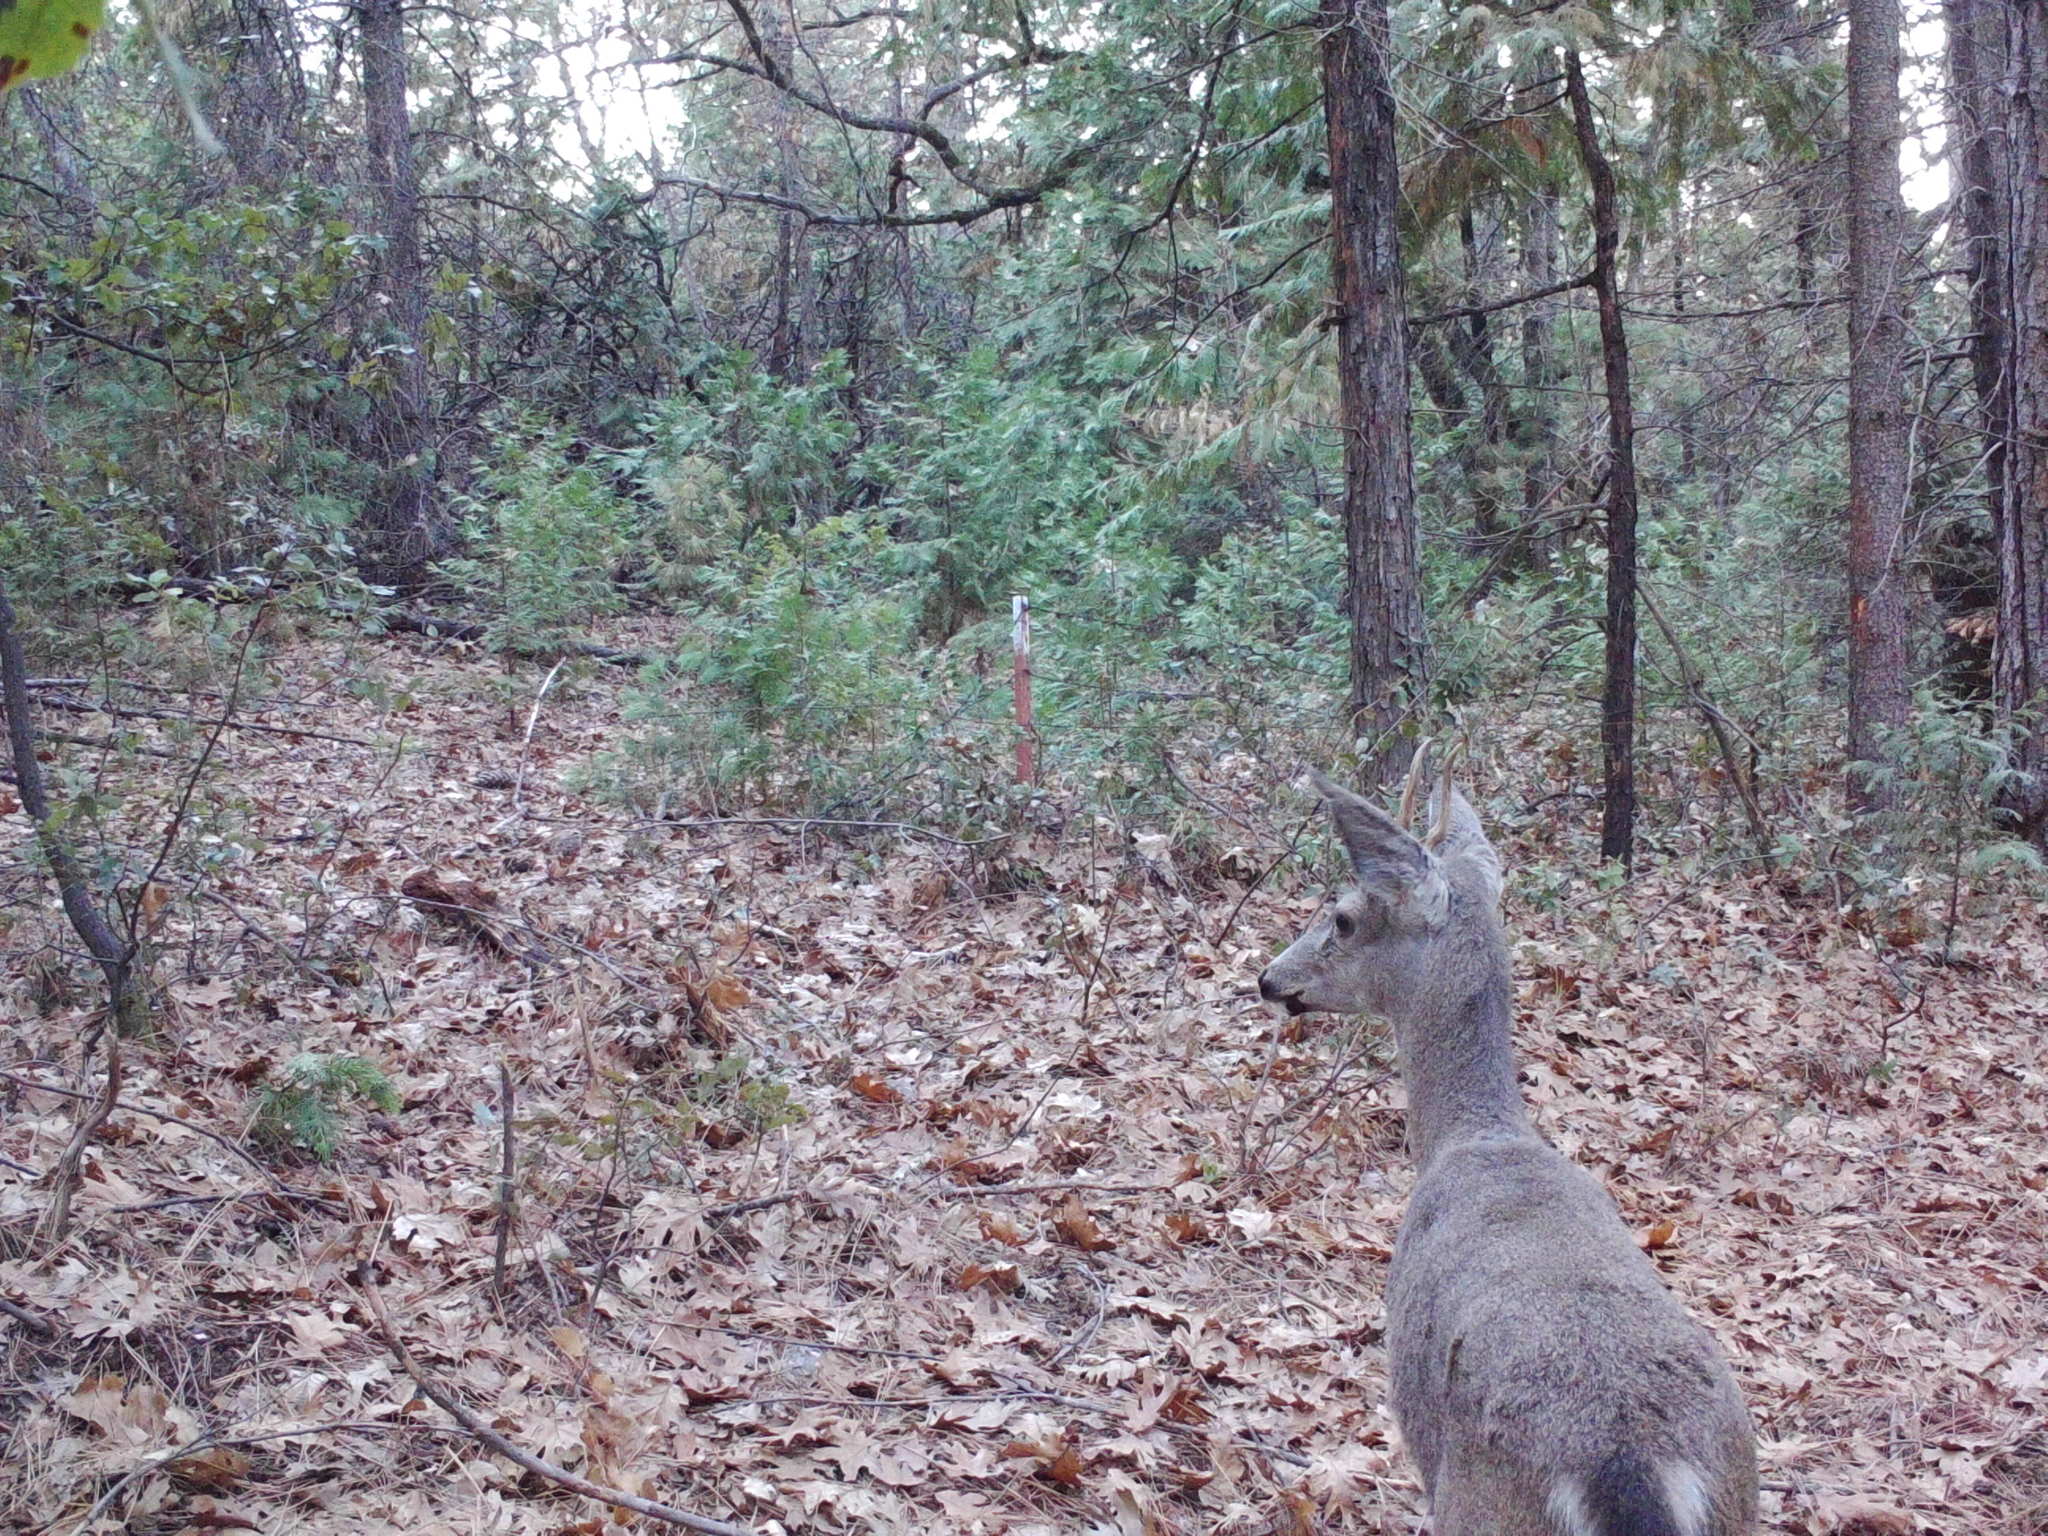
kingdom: Animalia
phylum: Chordata
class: Mammalia
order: Artiodactyla
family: Cervidae
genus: Odocoileus
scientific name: Odocoileus hemionus
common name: Mule deer
